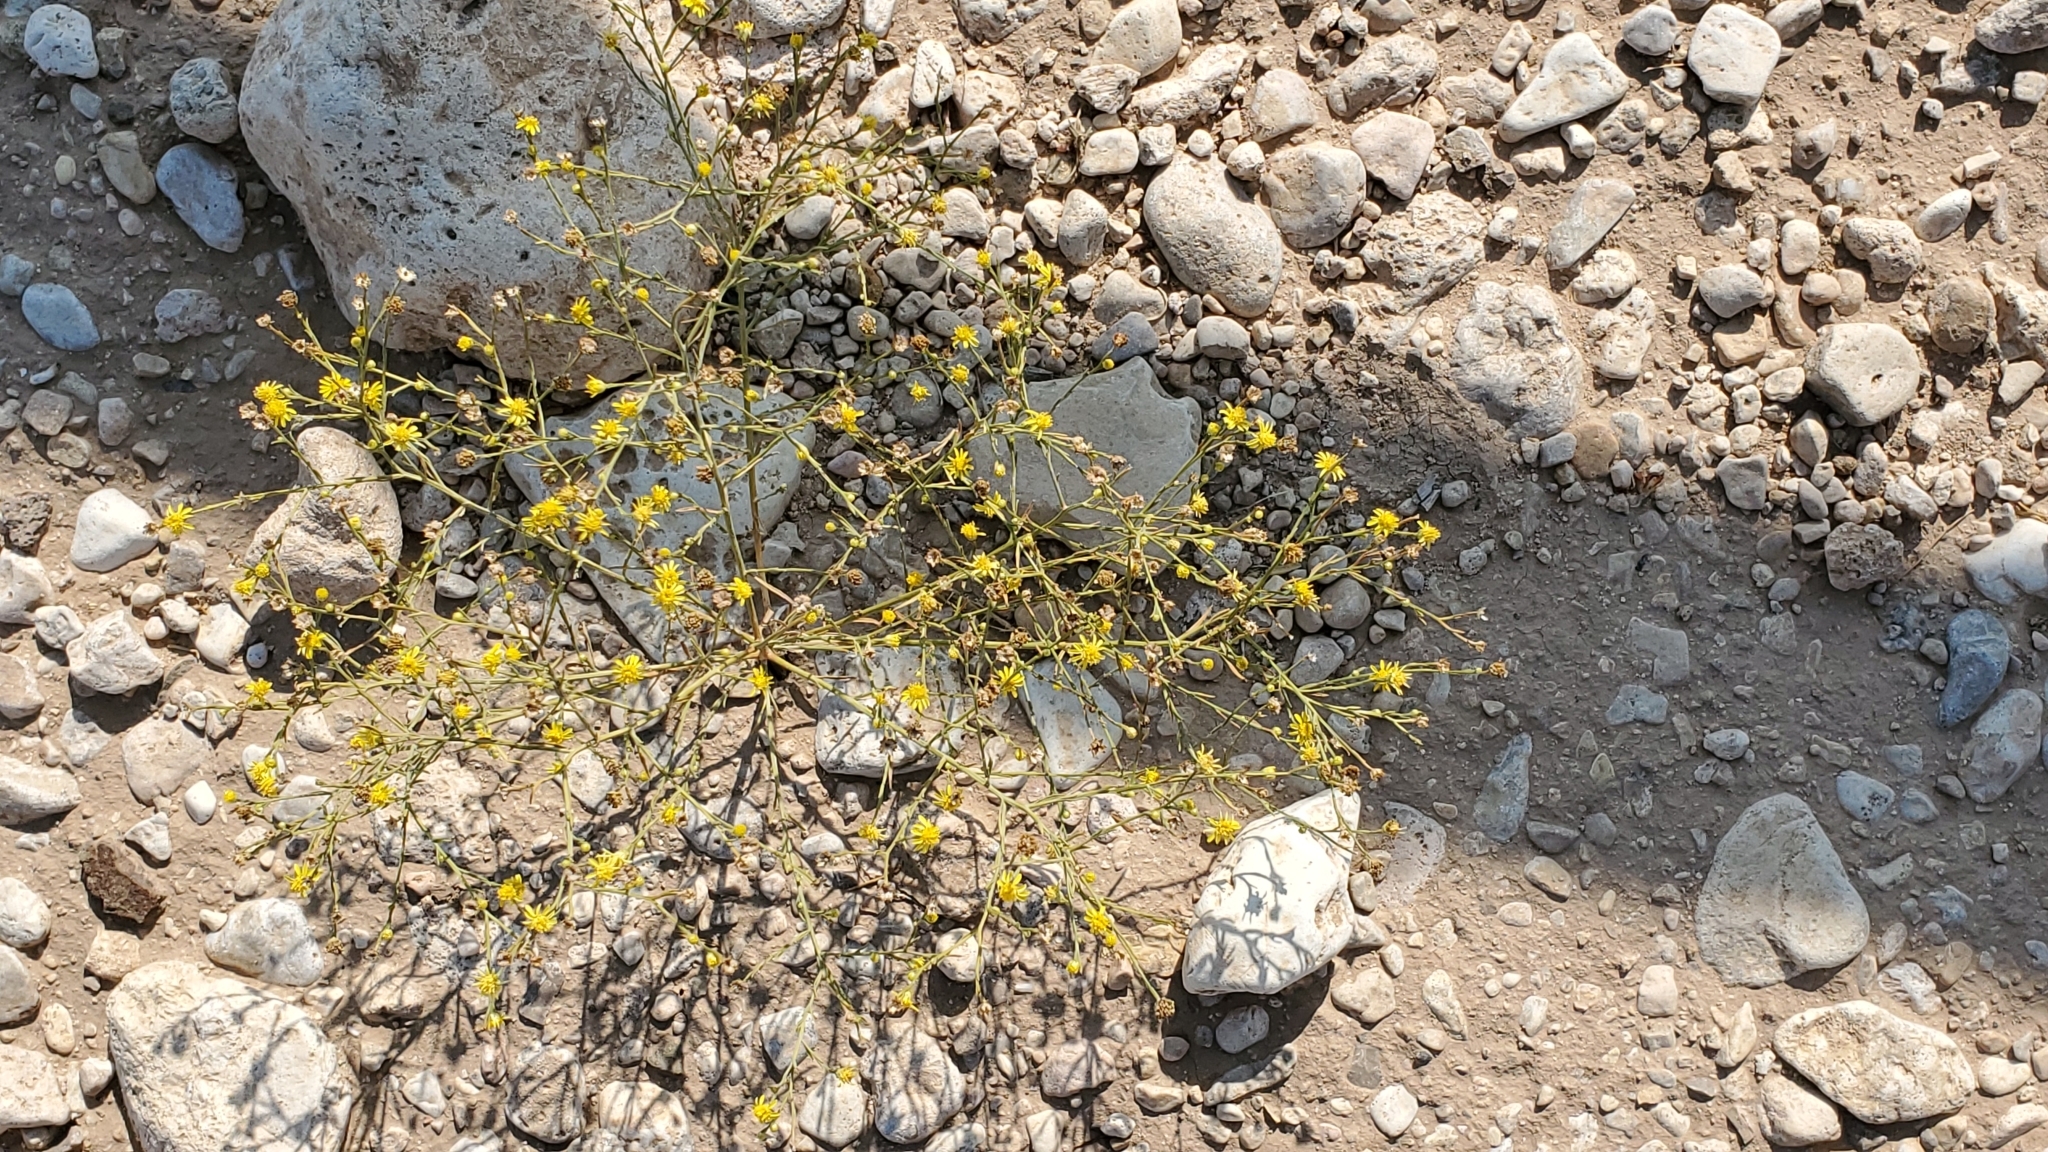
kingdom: Plantae
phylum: Tracheophyta
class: Magnoliopsida
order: Asterales
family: Asteraceae
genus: Amphiachyris
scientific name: Amphiachyris dracunculoides
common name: Broomweed
